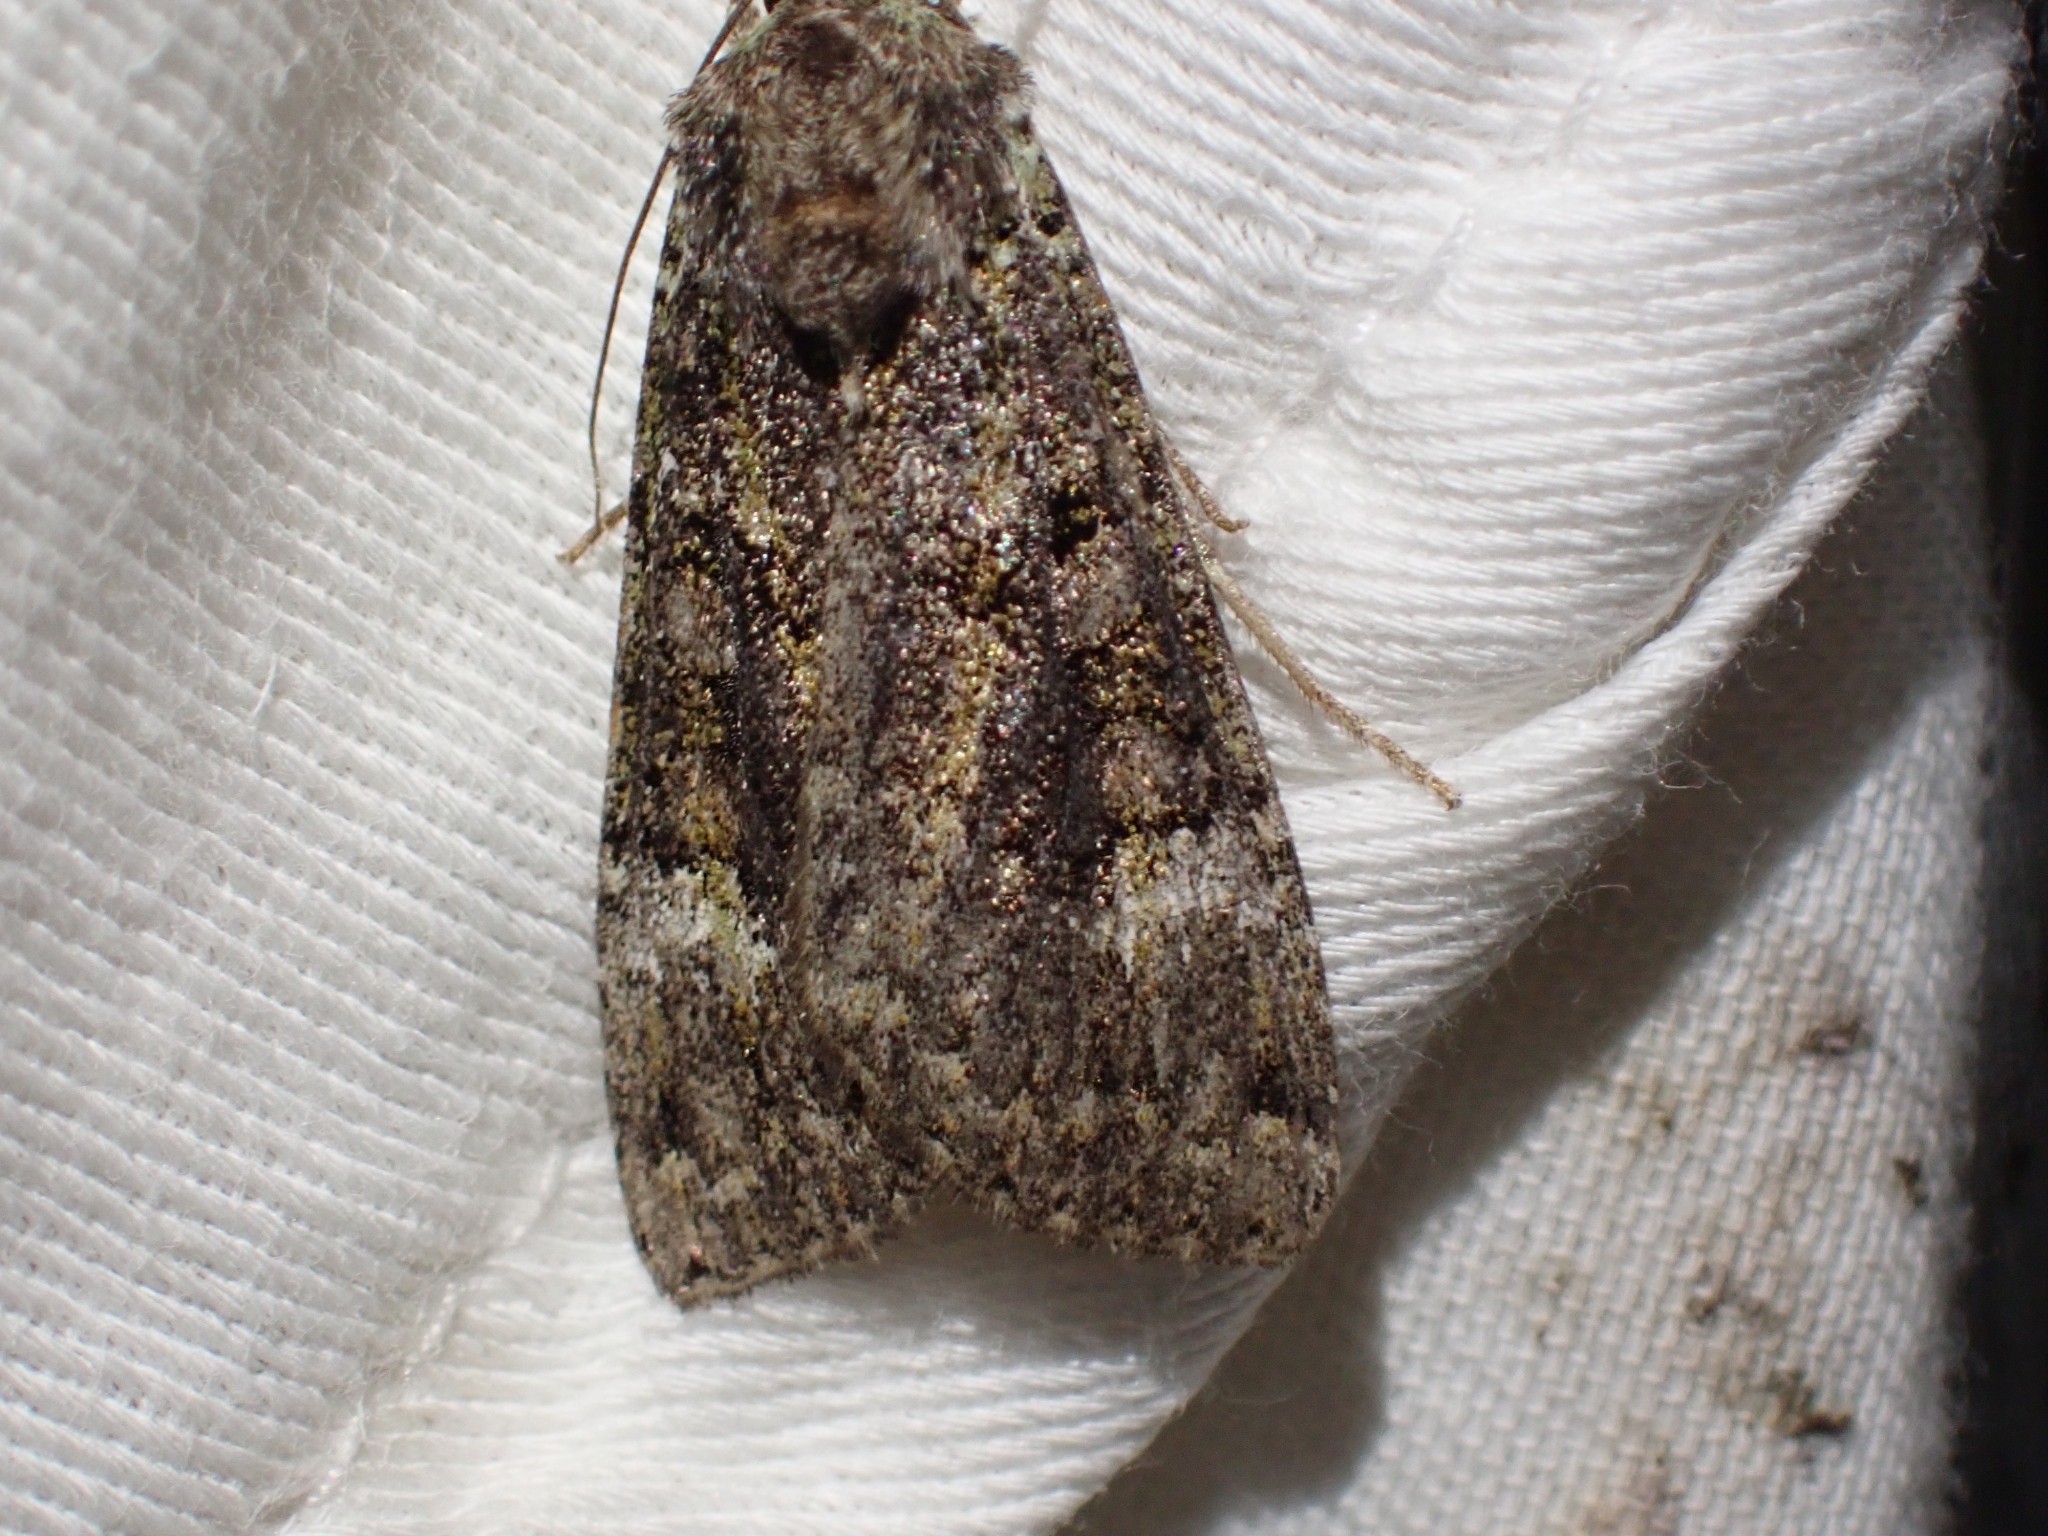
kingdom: Animalia
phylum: Arthropoda
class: Insecta
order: Lepidoptera
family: Noctuidae
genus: Anaplectoides
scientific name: Anaplectoides prasina
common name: Green arches
